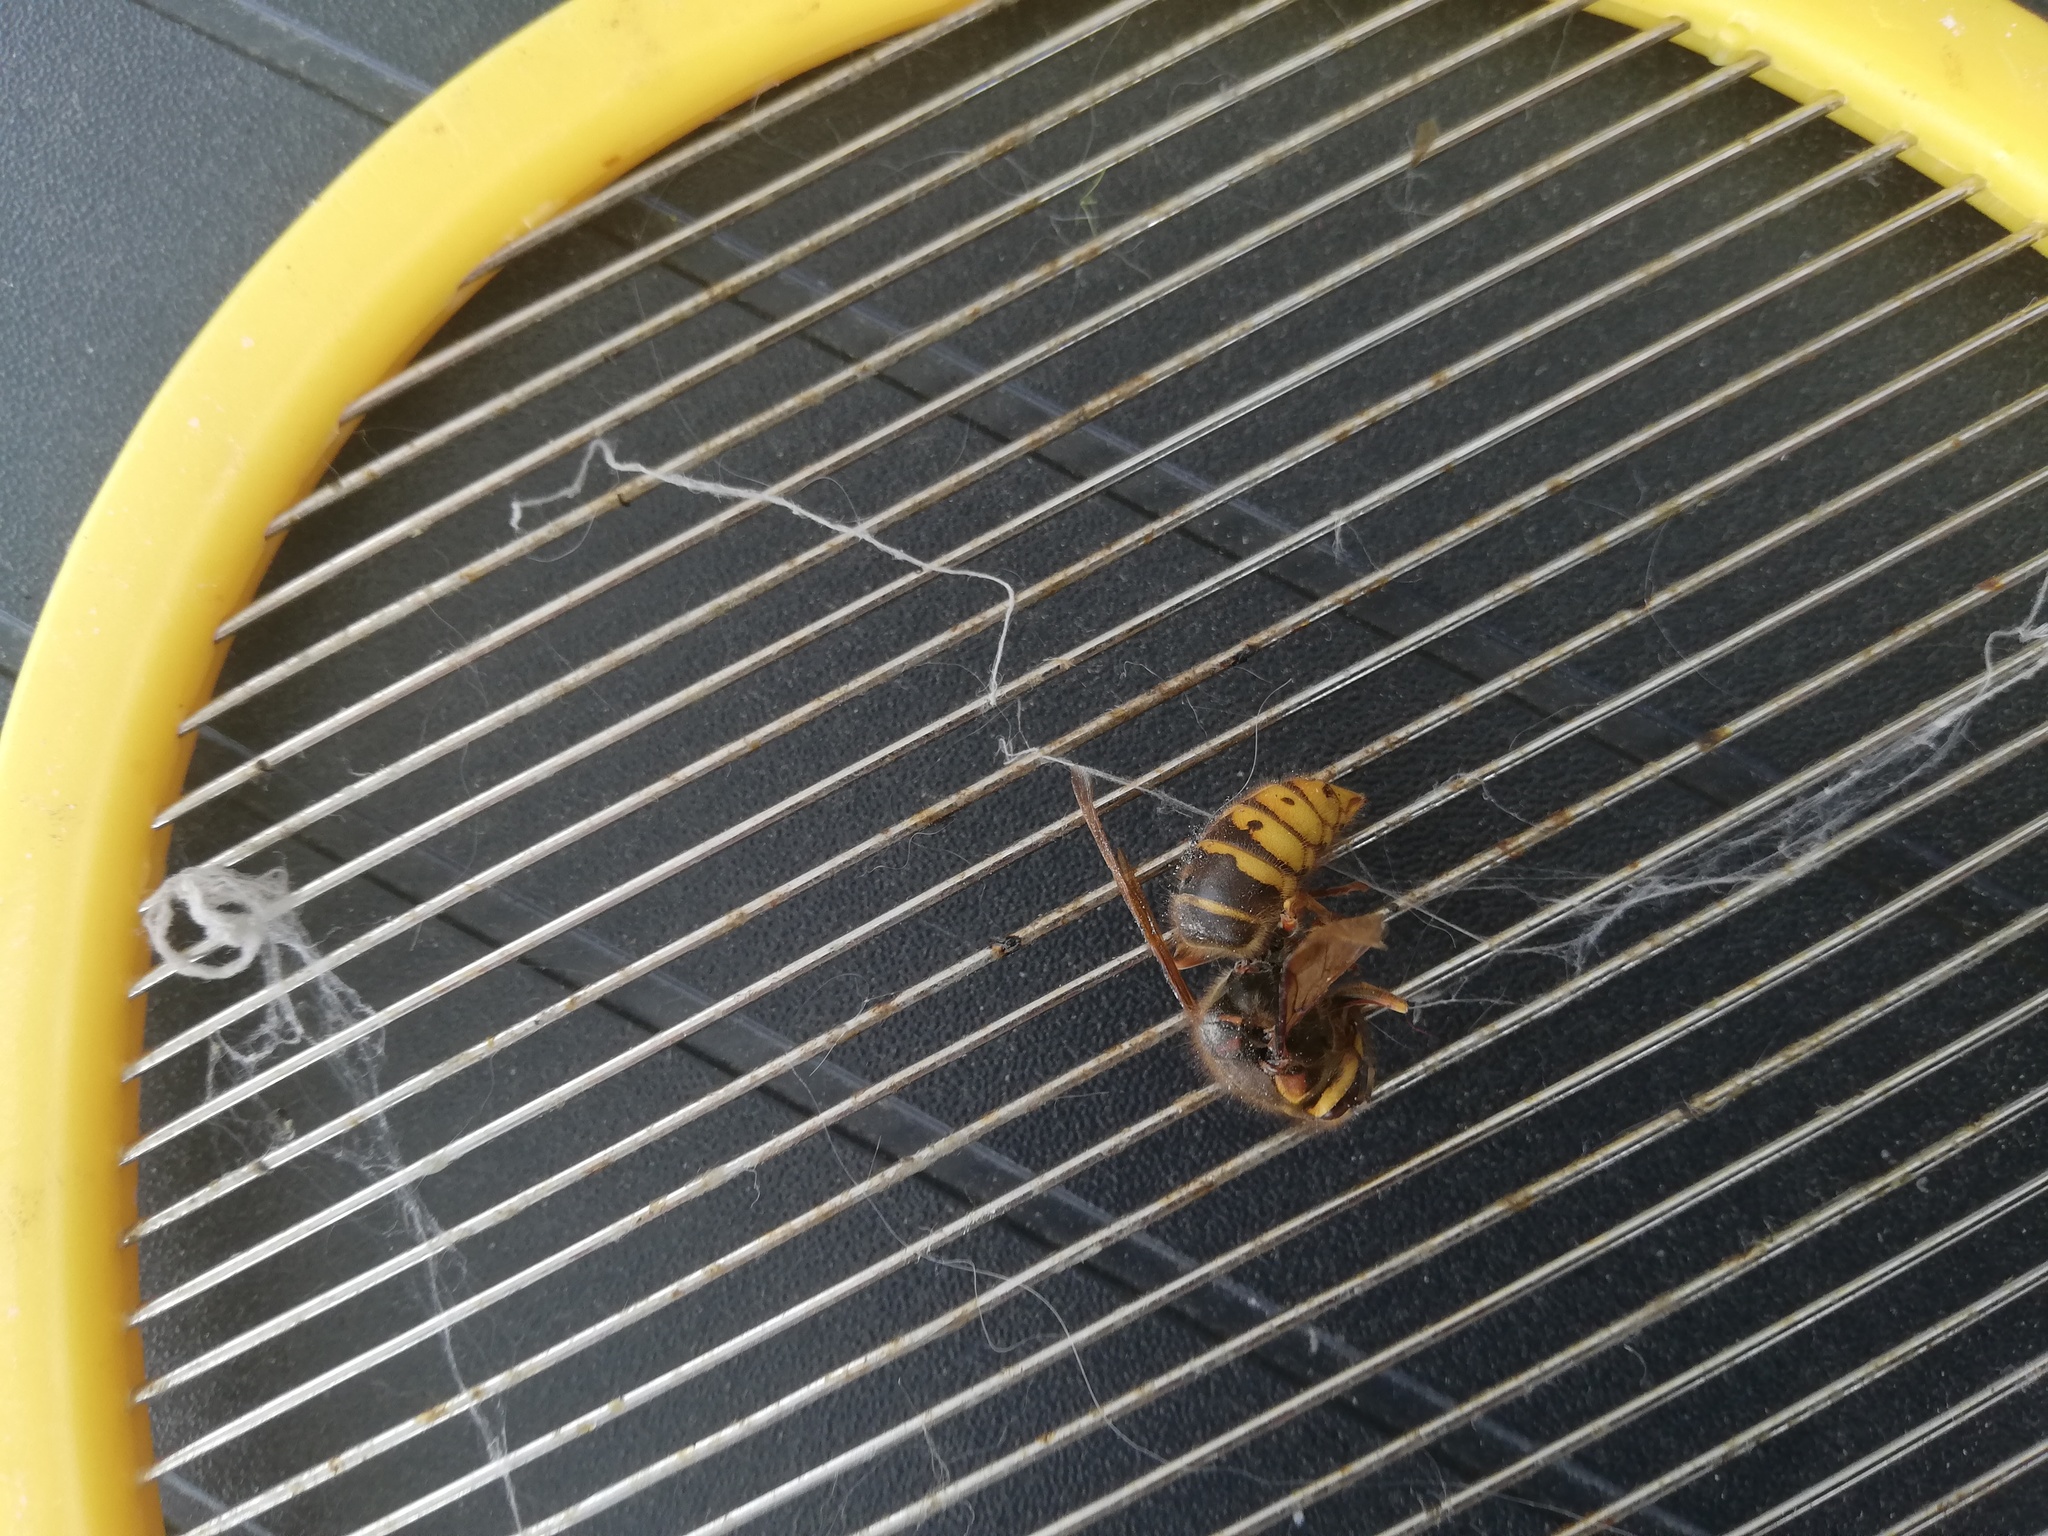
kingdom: Animalia
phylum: Arthropoda
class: Insecta
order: Hymenoptera
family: Vespidae
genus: Vespa
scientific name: Vespa crabro
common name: Hornet
